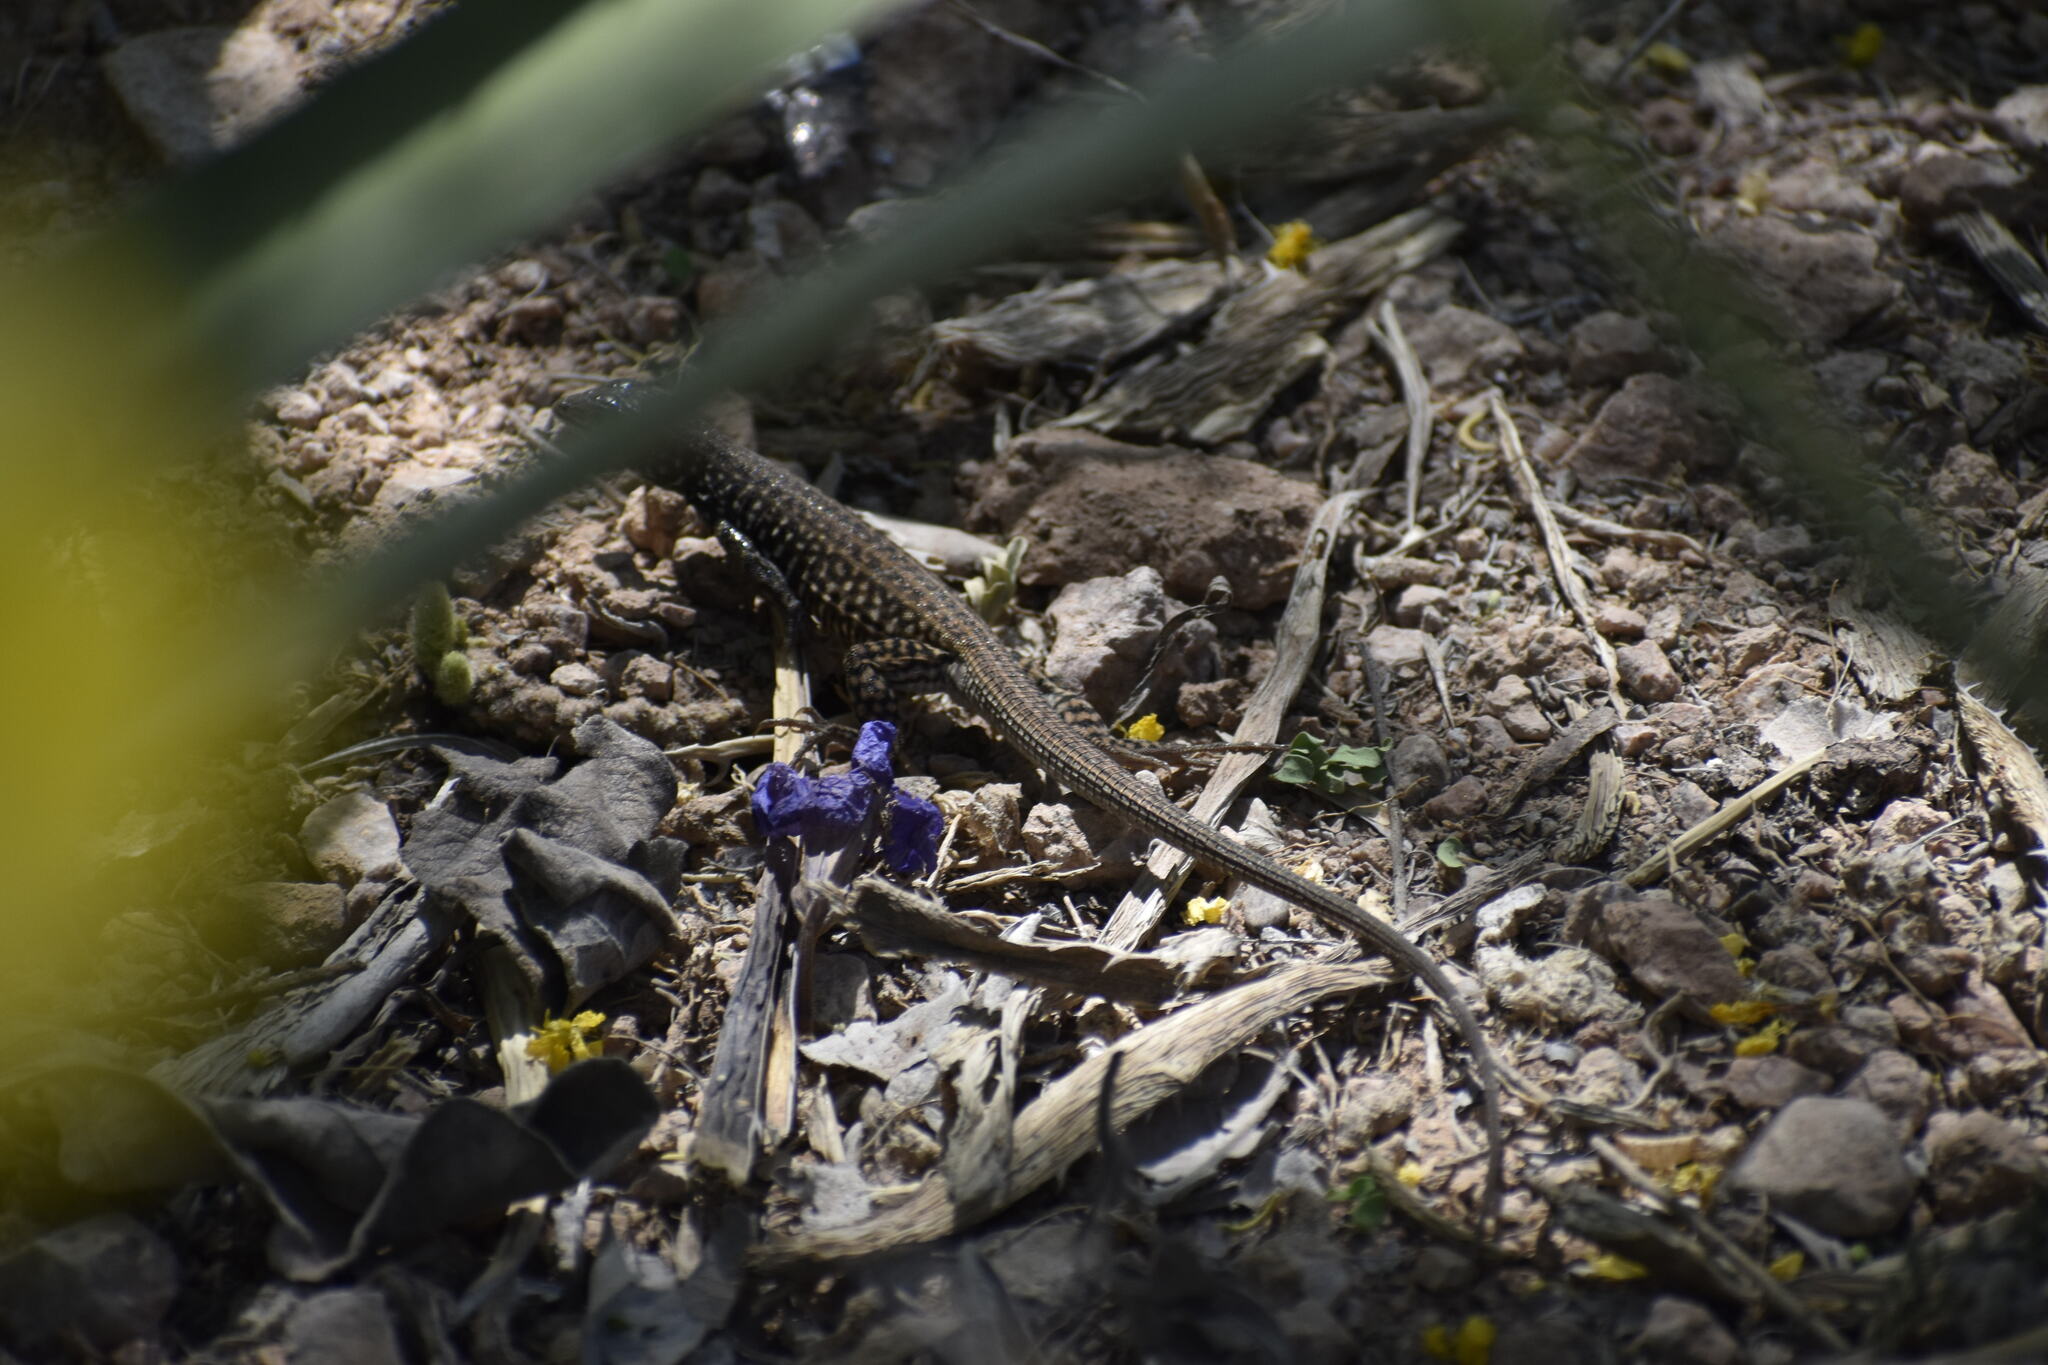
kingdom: Animalia
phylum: Chordata
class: Squamata
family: Teiidae
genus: Aspidoscelis
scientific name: Aspidoscelis tigris
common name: Tiger whiptail
